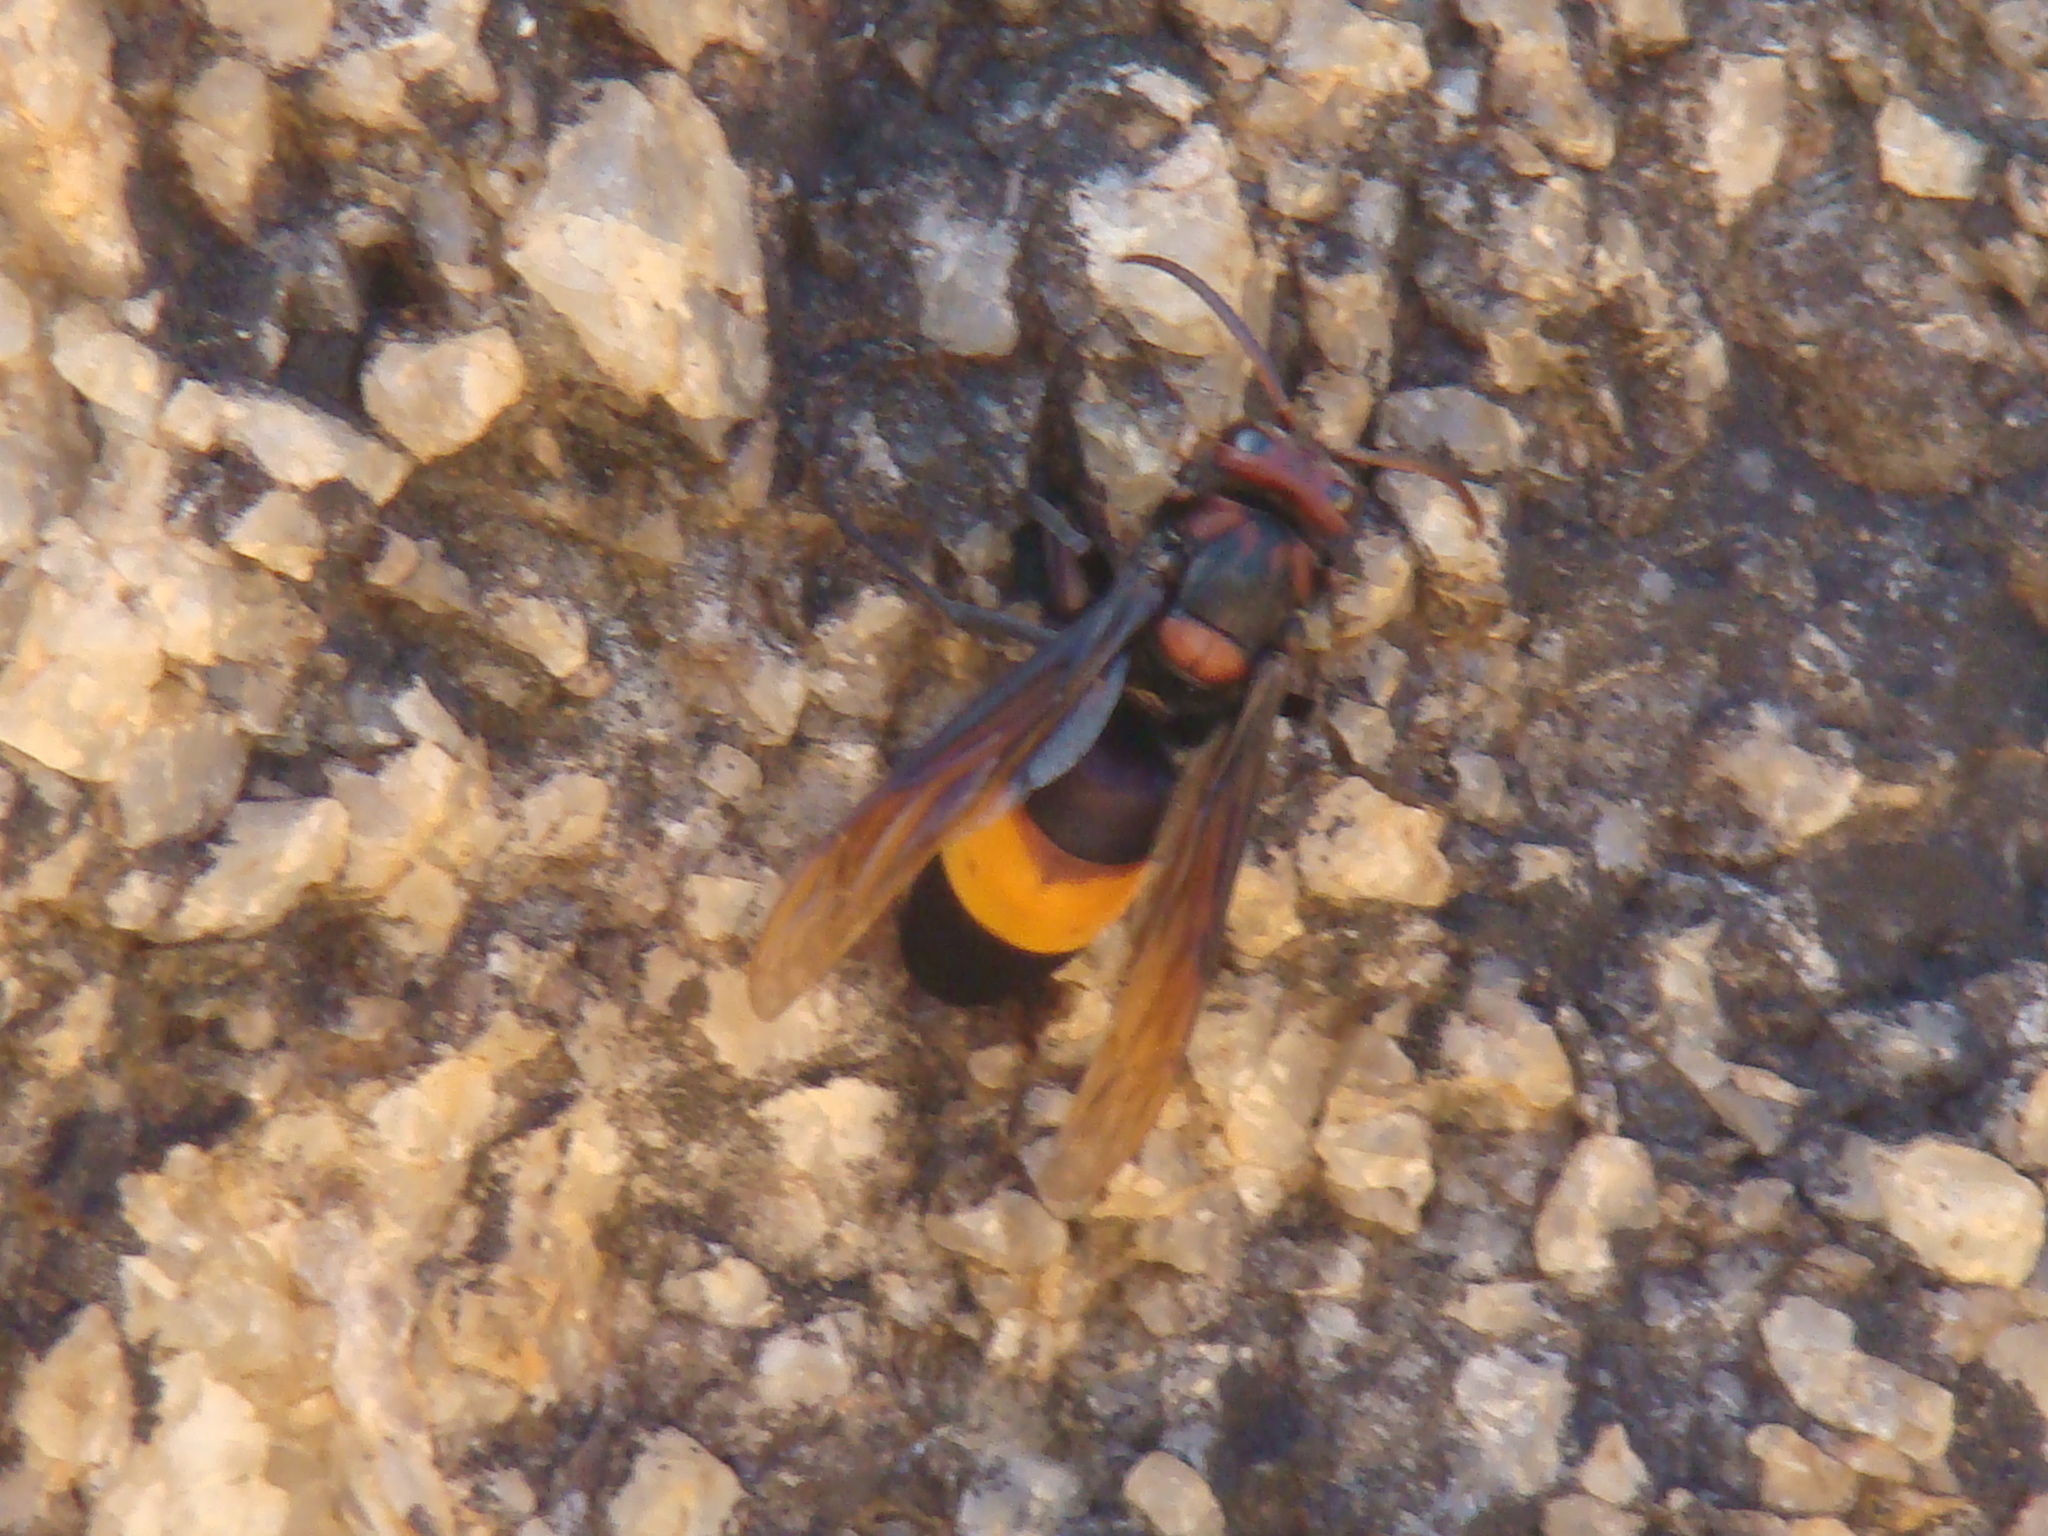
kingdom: Animalia
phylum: Arthropoda
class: Insecta
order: Hymenoptera
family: Vespidae
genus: Vespa
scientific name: Vespa tropica
